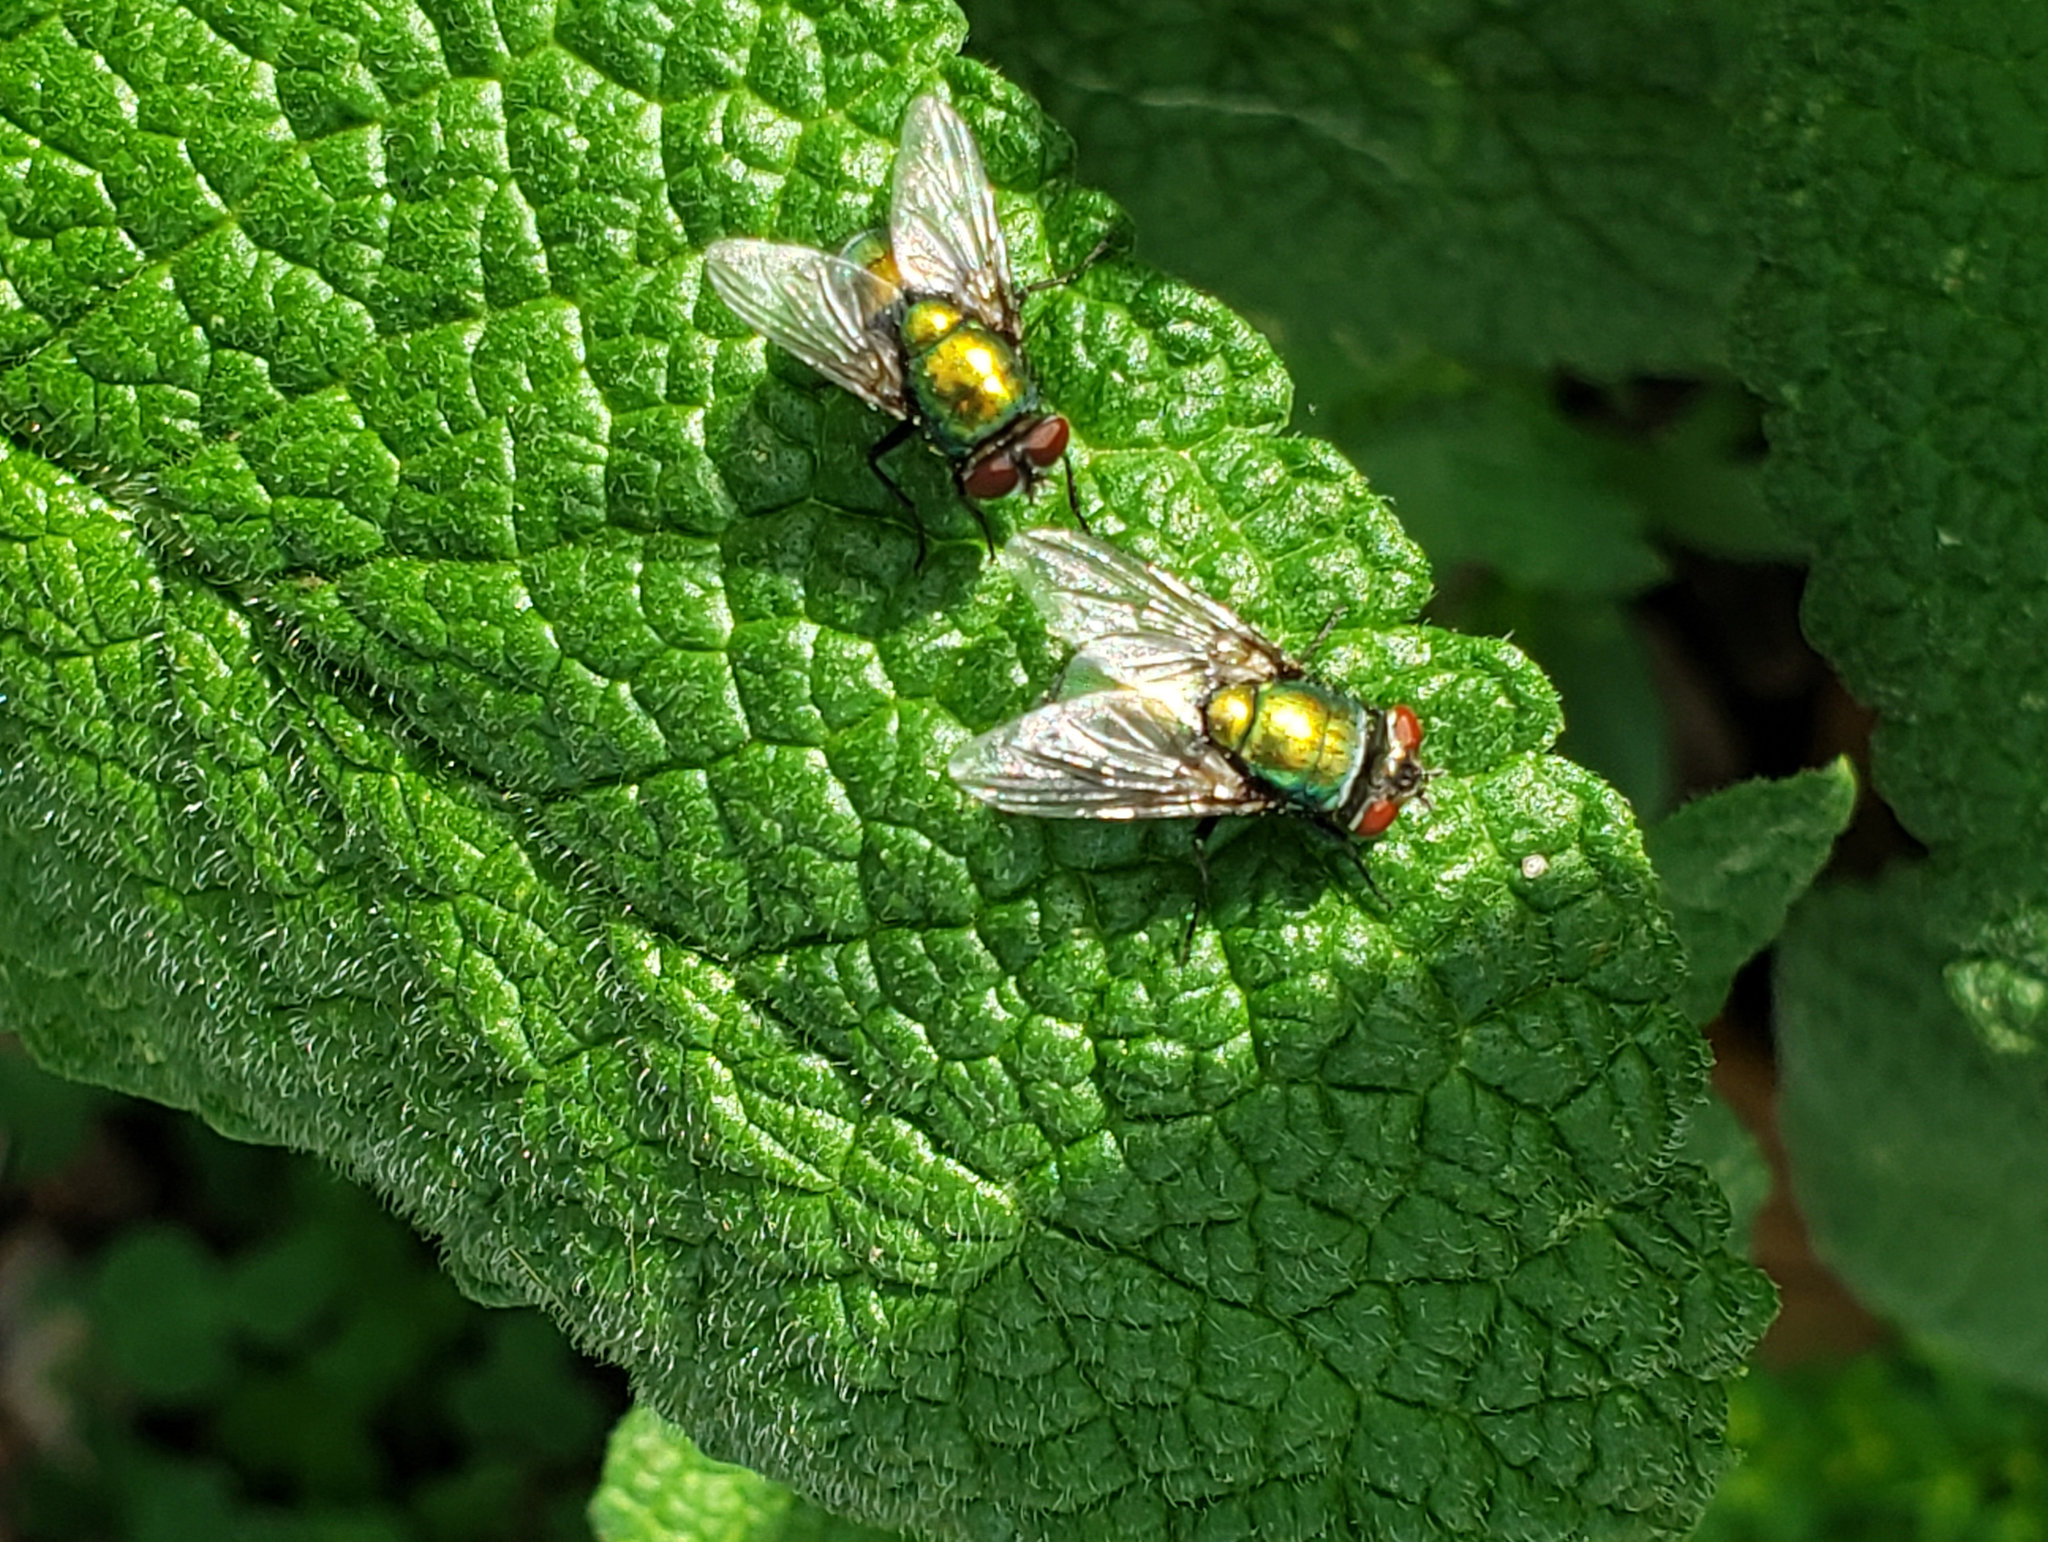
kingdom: Animalia
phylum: Arthropoda
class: Insecta
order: Diptera
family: Calliphoridae
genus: Lucilia
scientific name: Lucilia sericata
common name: Blow fly
